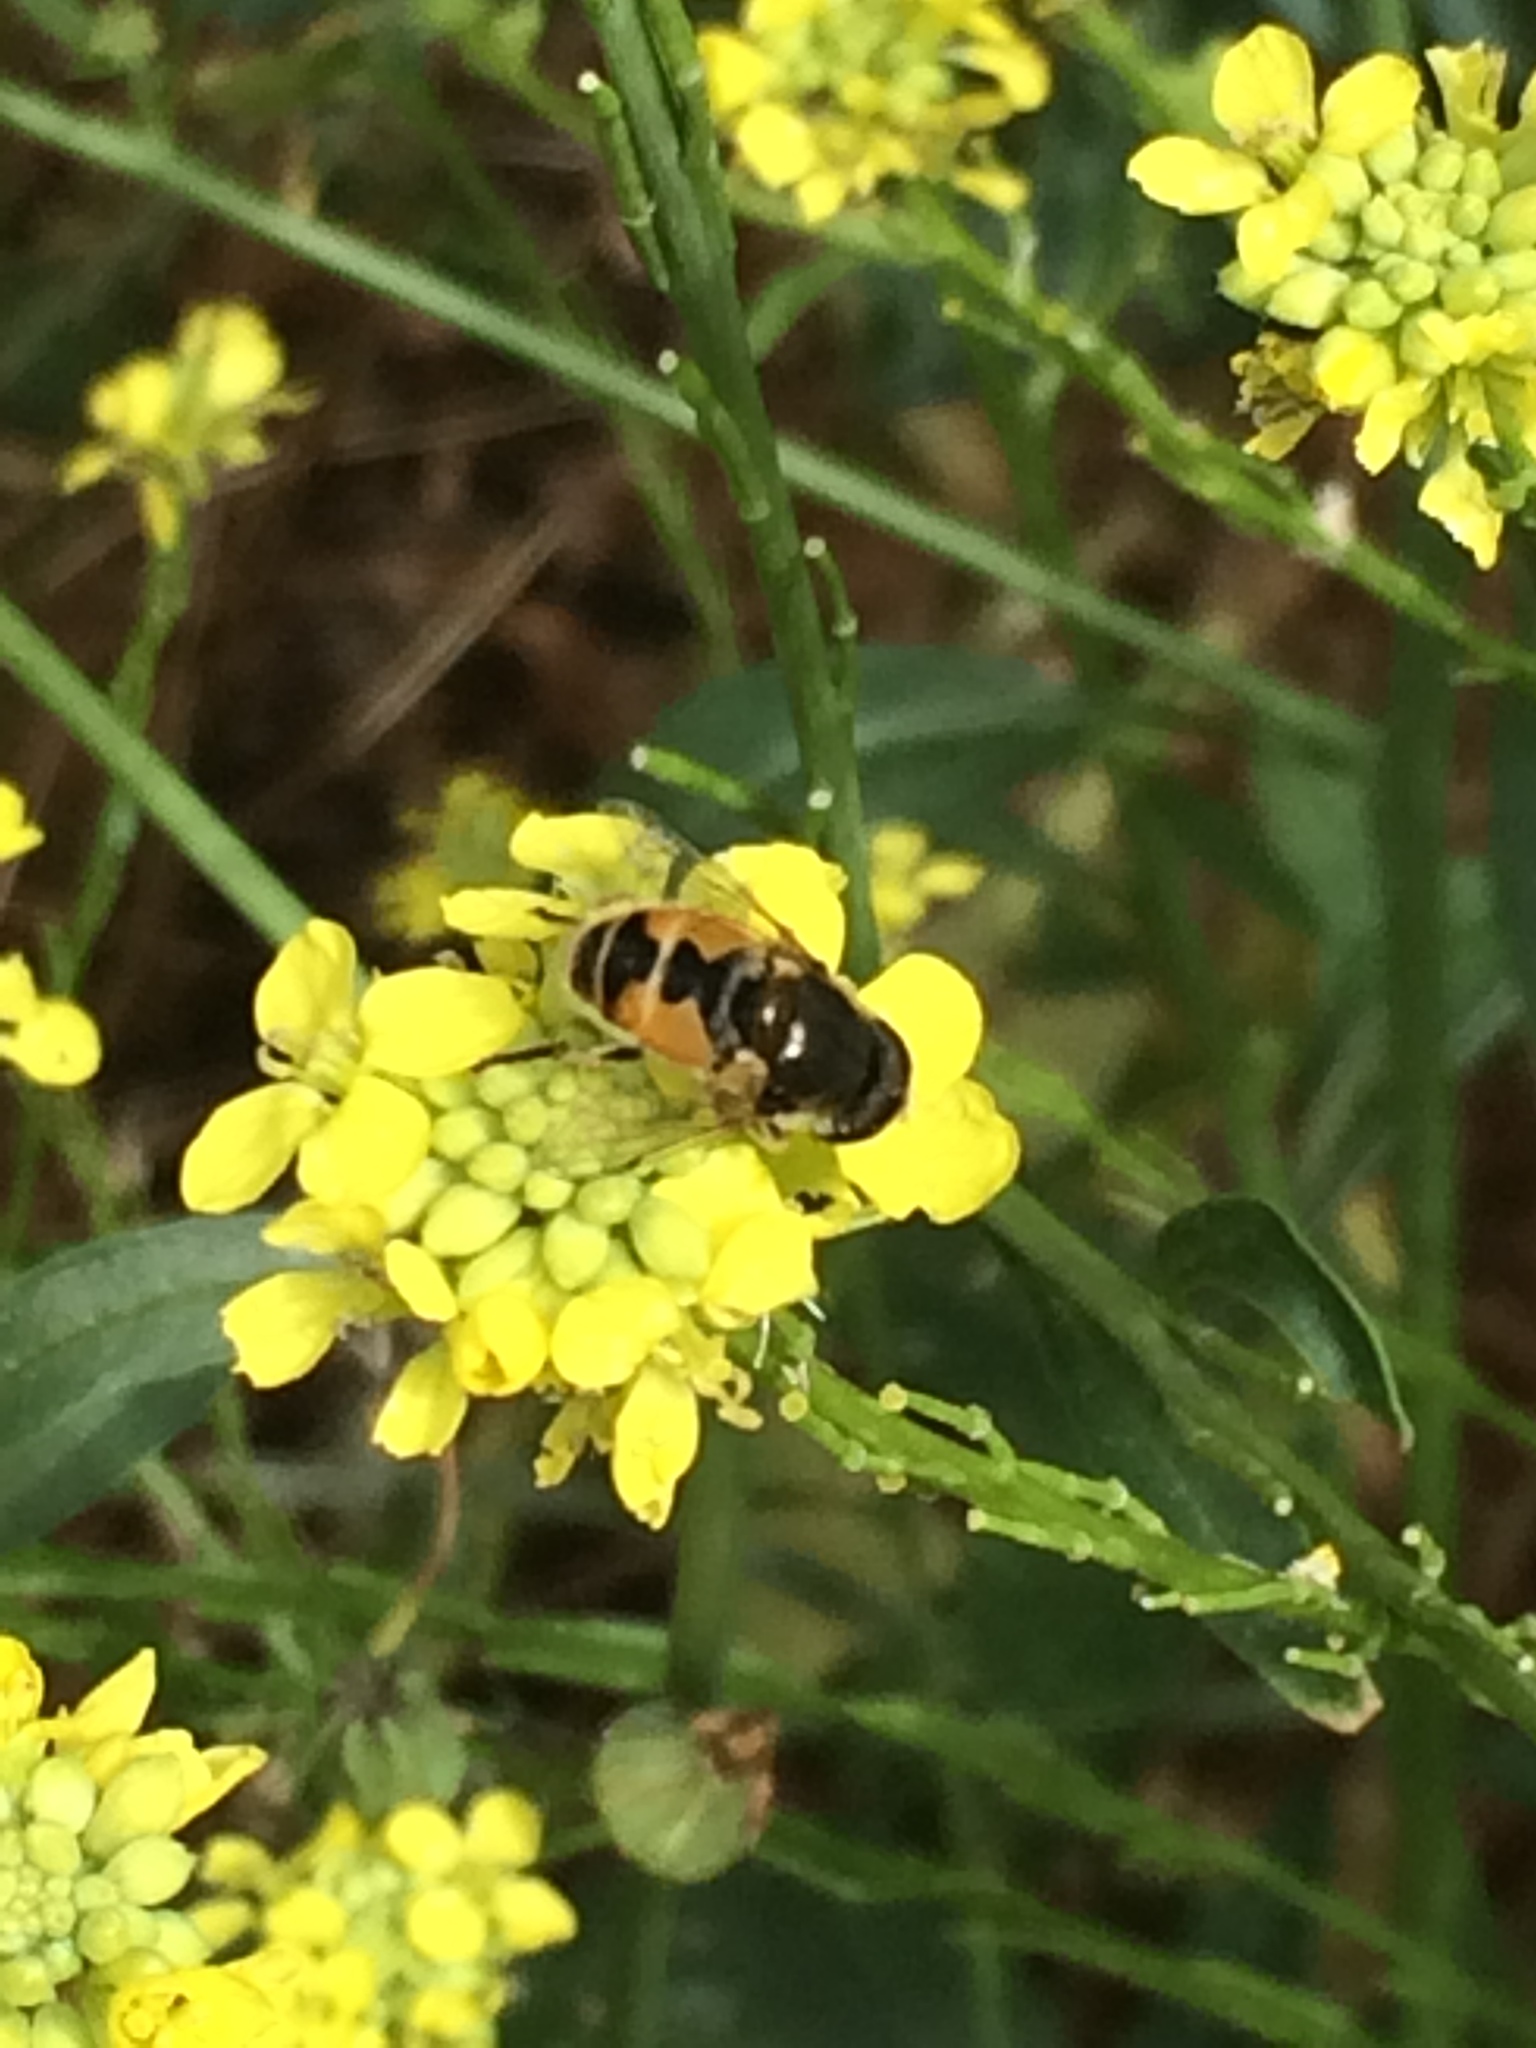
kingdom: Animalia
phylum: Arthropoda
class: Insecta
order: Diptera
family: Syrphidae
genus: Eristalis
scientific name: Eristalis arbustorum
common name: Hover fly
